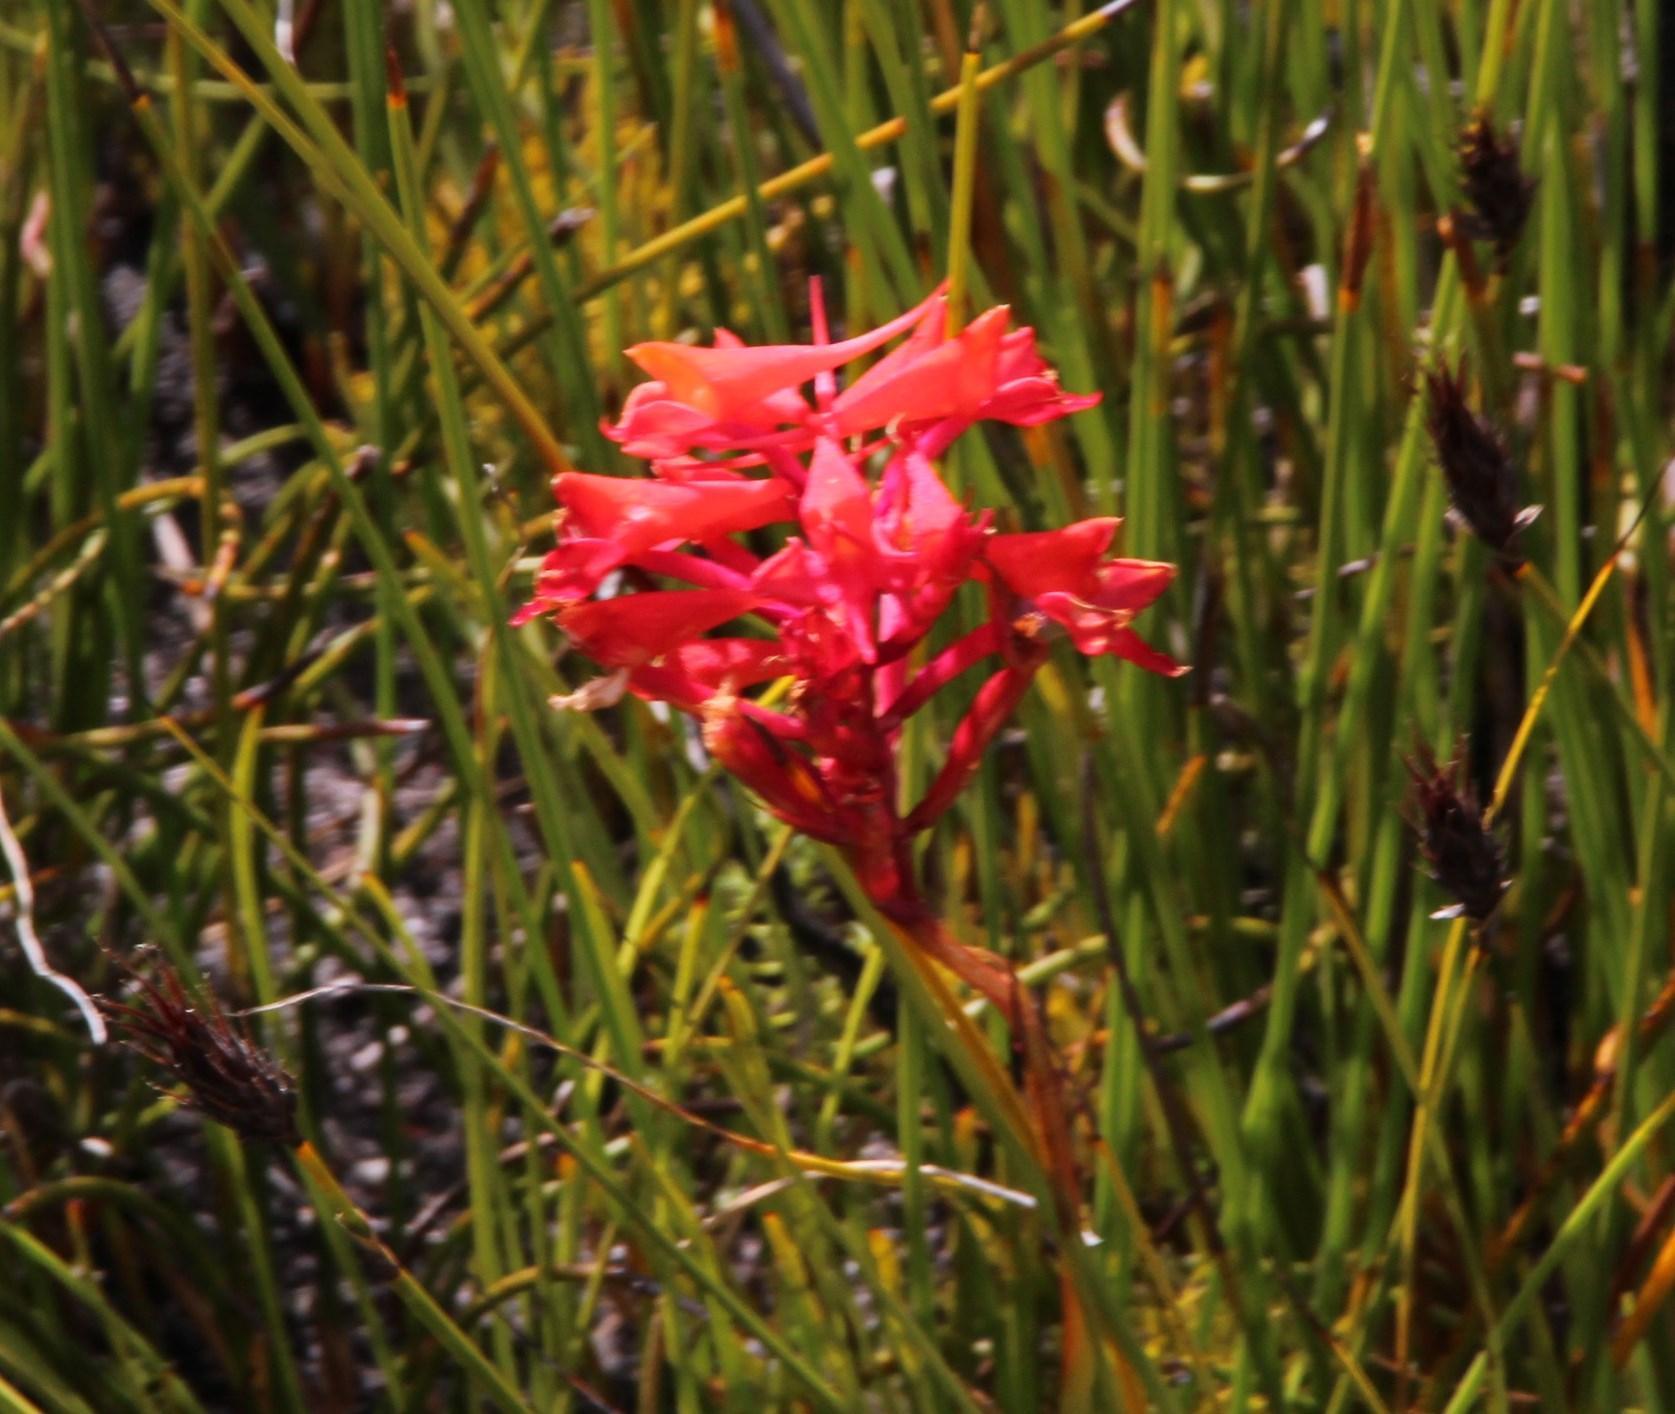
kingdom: Plantae
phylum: Tracheophyta
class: Liliopsida
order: Asparagales
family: Orchidaceae
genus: Disa
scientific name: Disa ferruginea
